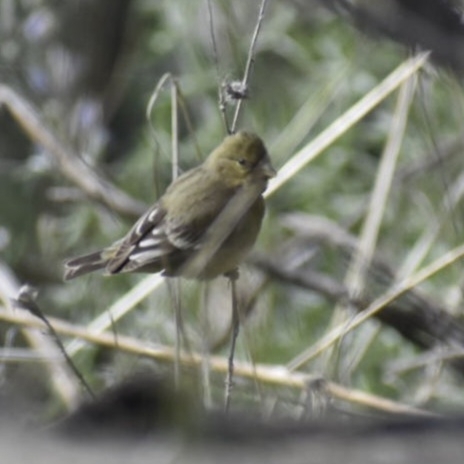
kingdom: Animalia
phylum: Chordata
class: Aves
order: Passeriformes
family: Fringillidae
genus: Spinus
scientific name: Spinus psaltria
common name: Lesser goldfinch
